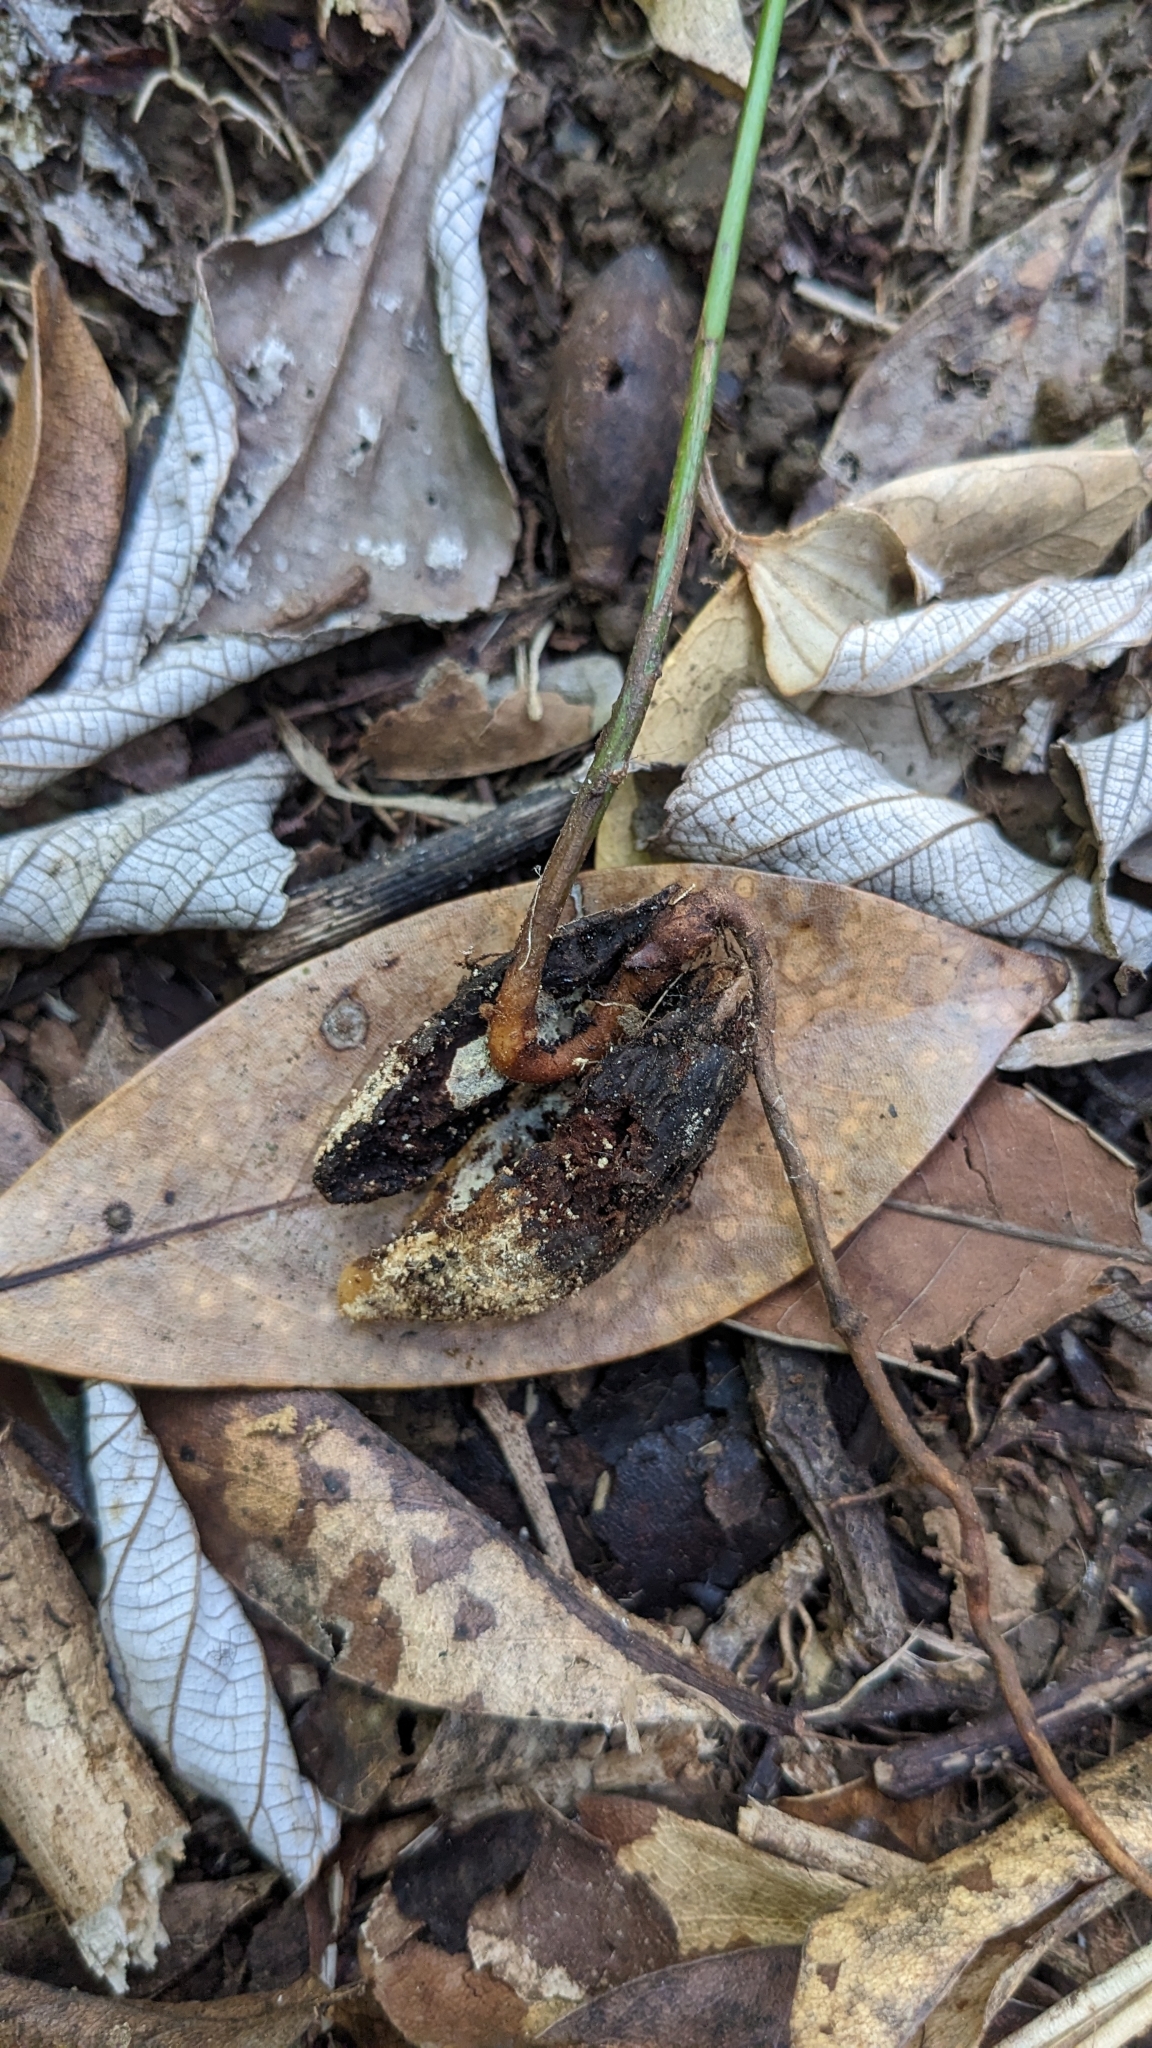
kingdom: Plantae
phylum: Tracheophyta
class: Magnoliopsida
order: Laurales
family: Lauraceae
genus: Endiandra
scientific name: Endiandra coriacea
